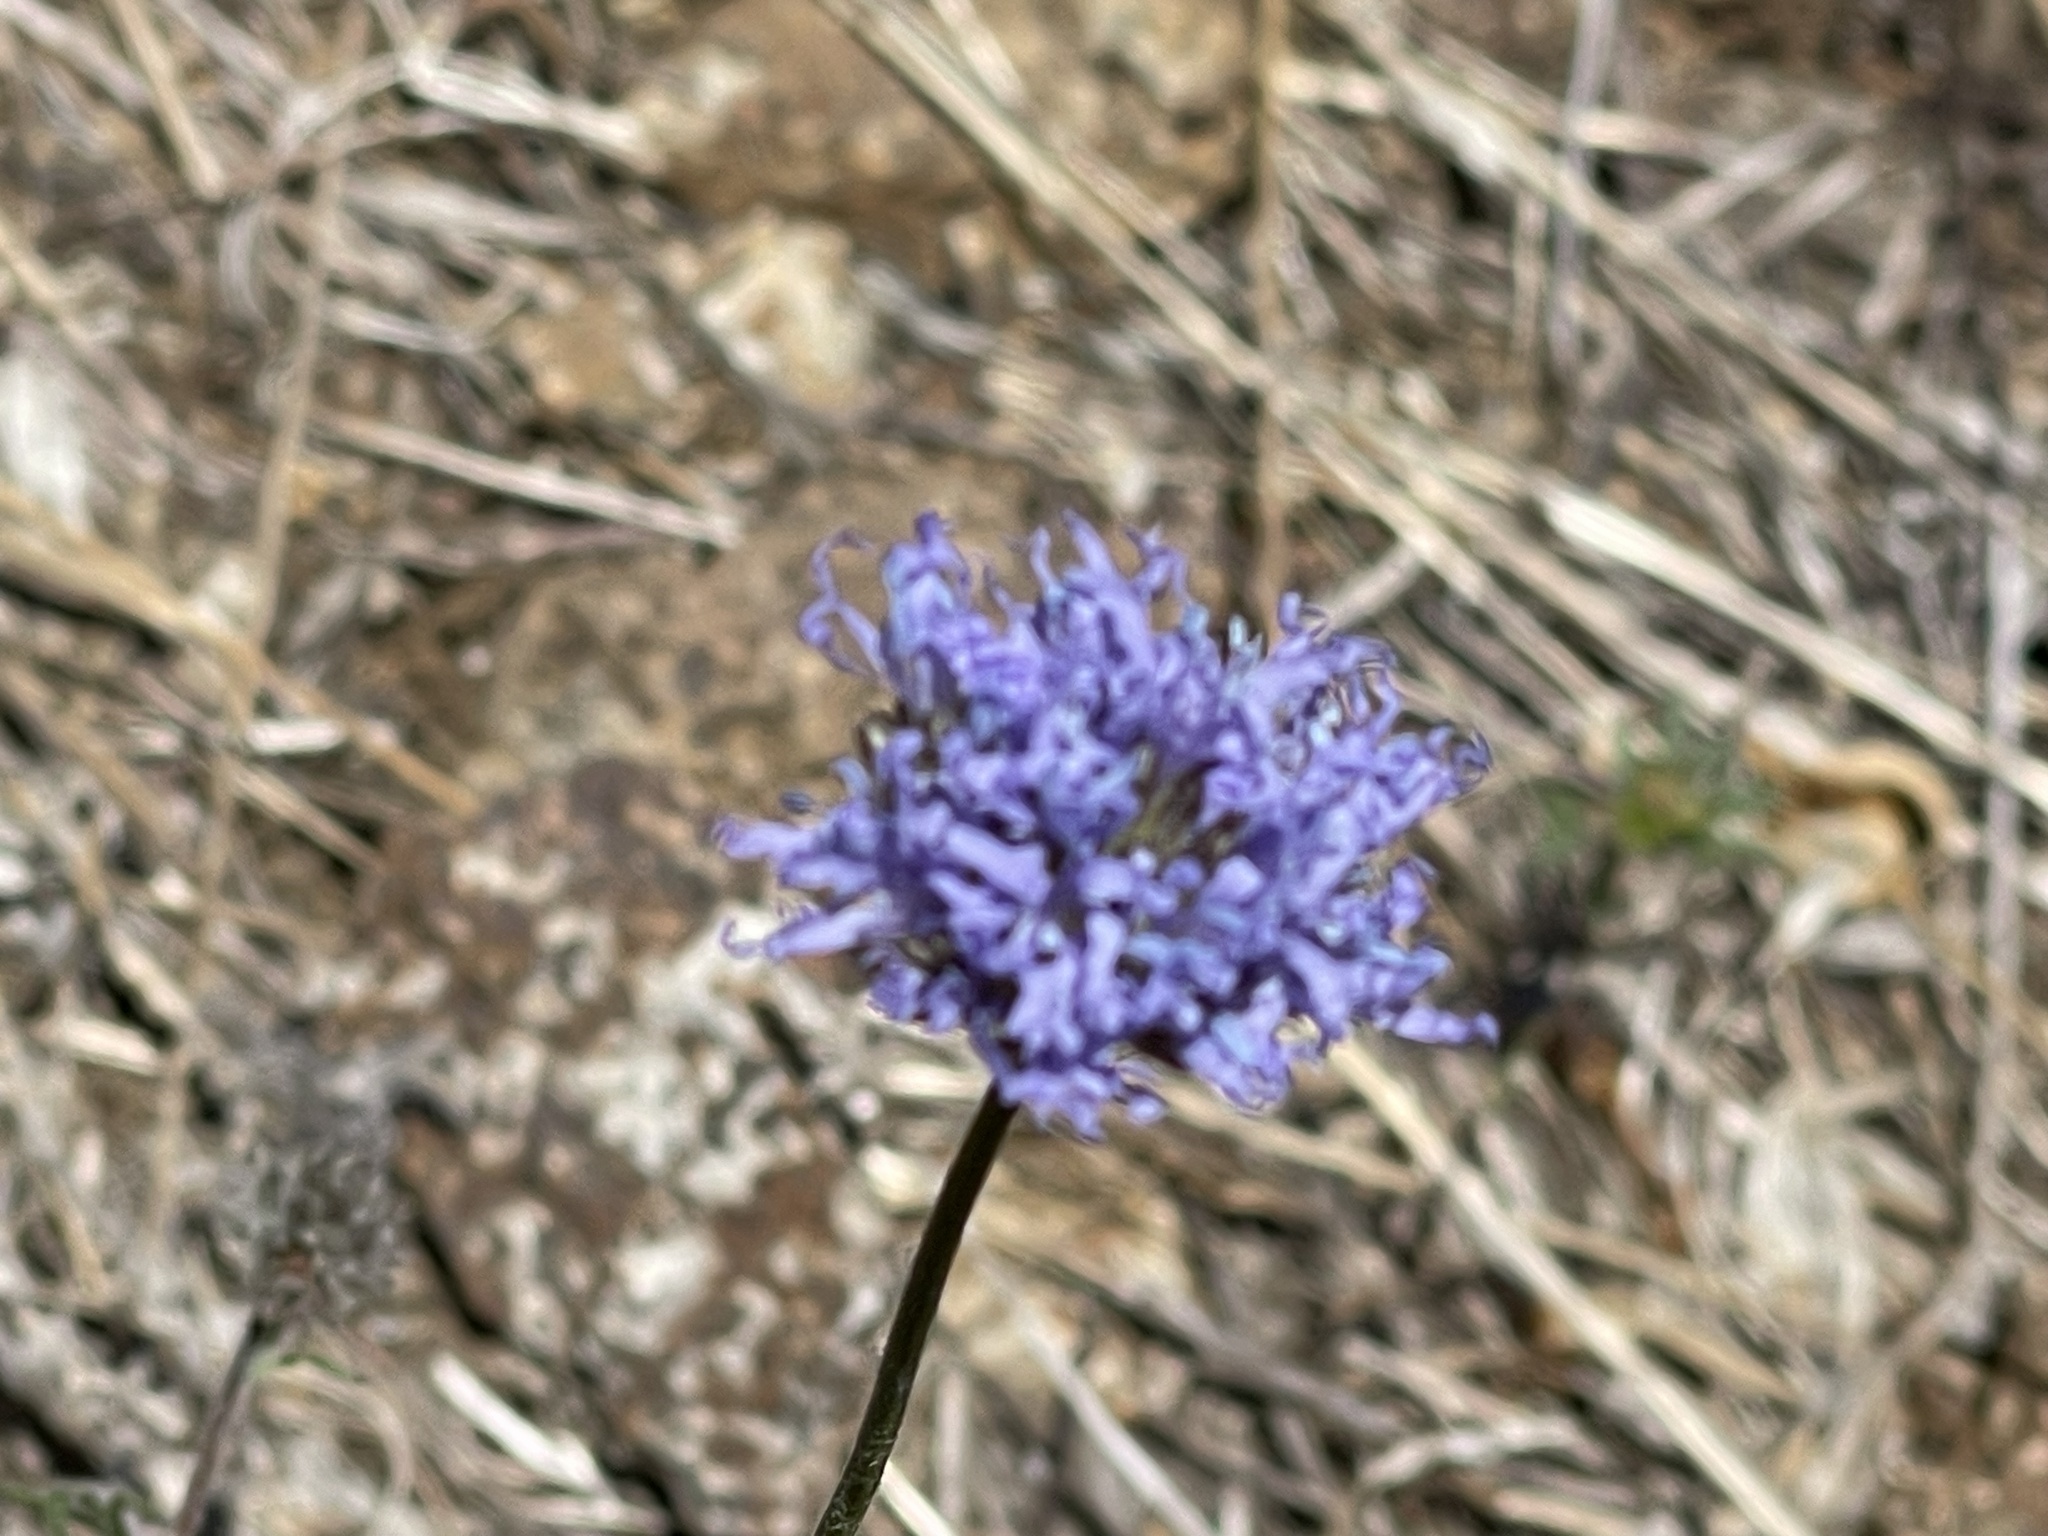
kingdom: Plantae
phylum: Tracheophyta
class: Magnoliopsida
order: Ericales
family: Polemoniaceae
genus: Gilia
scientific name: Gilia capitata
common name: Bluehead gilia
